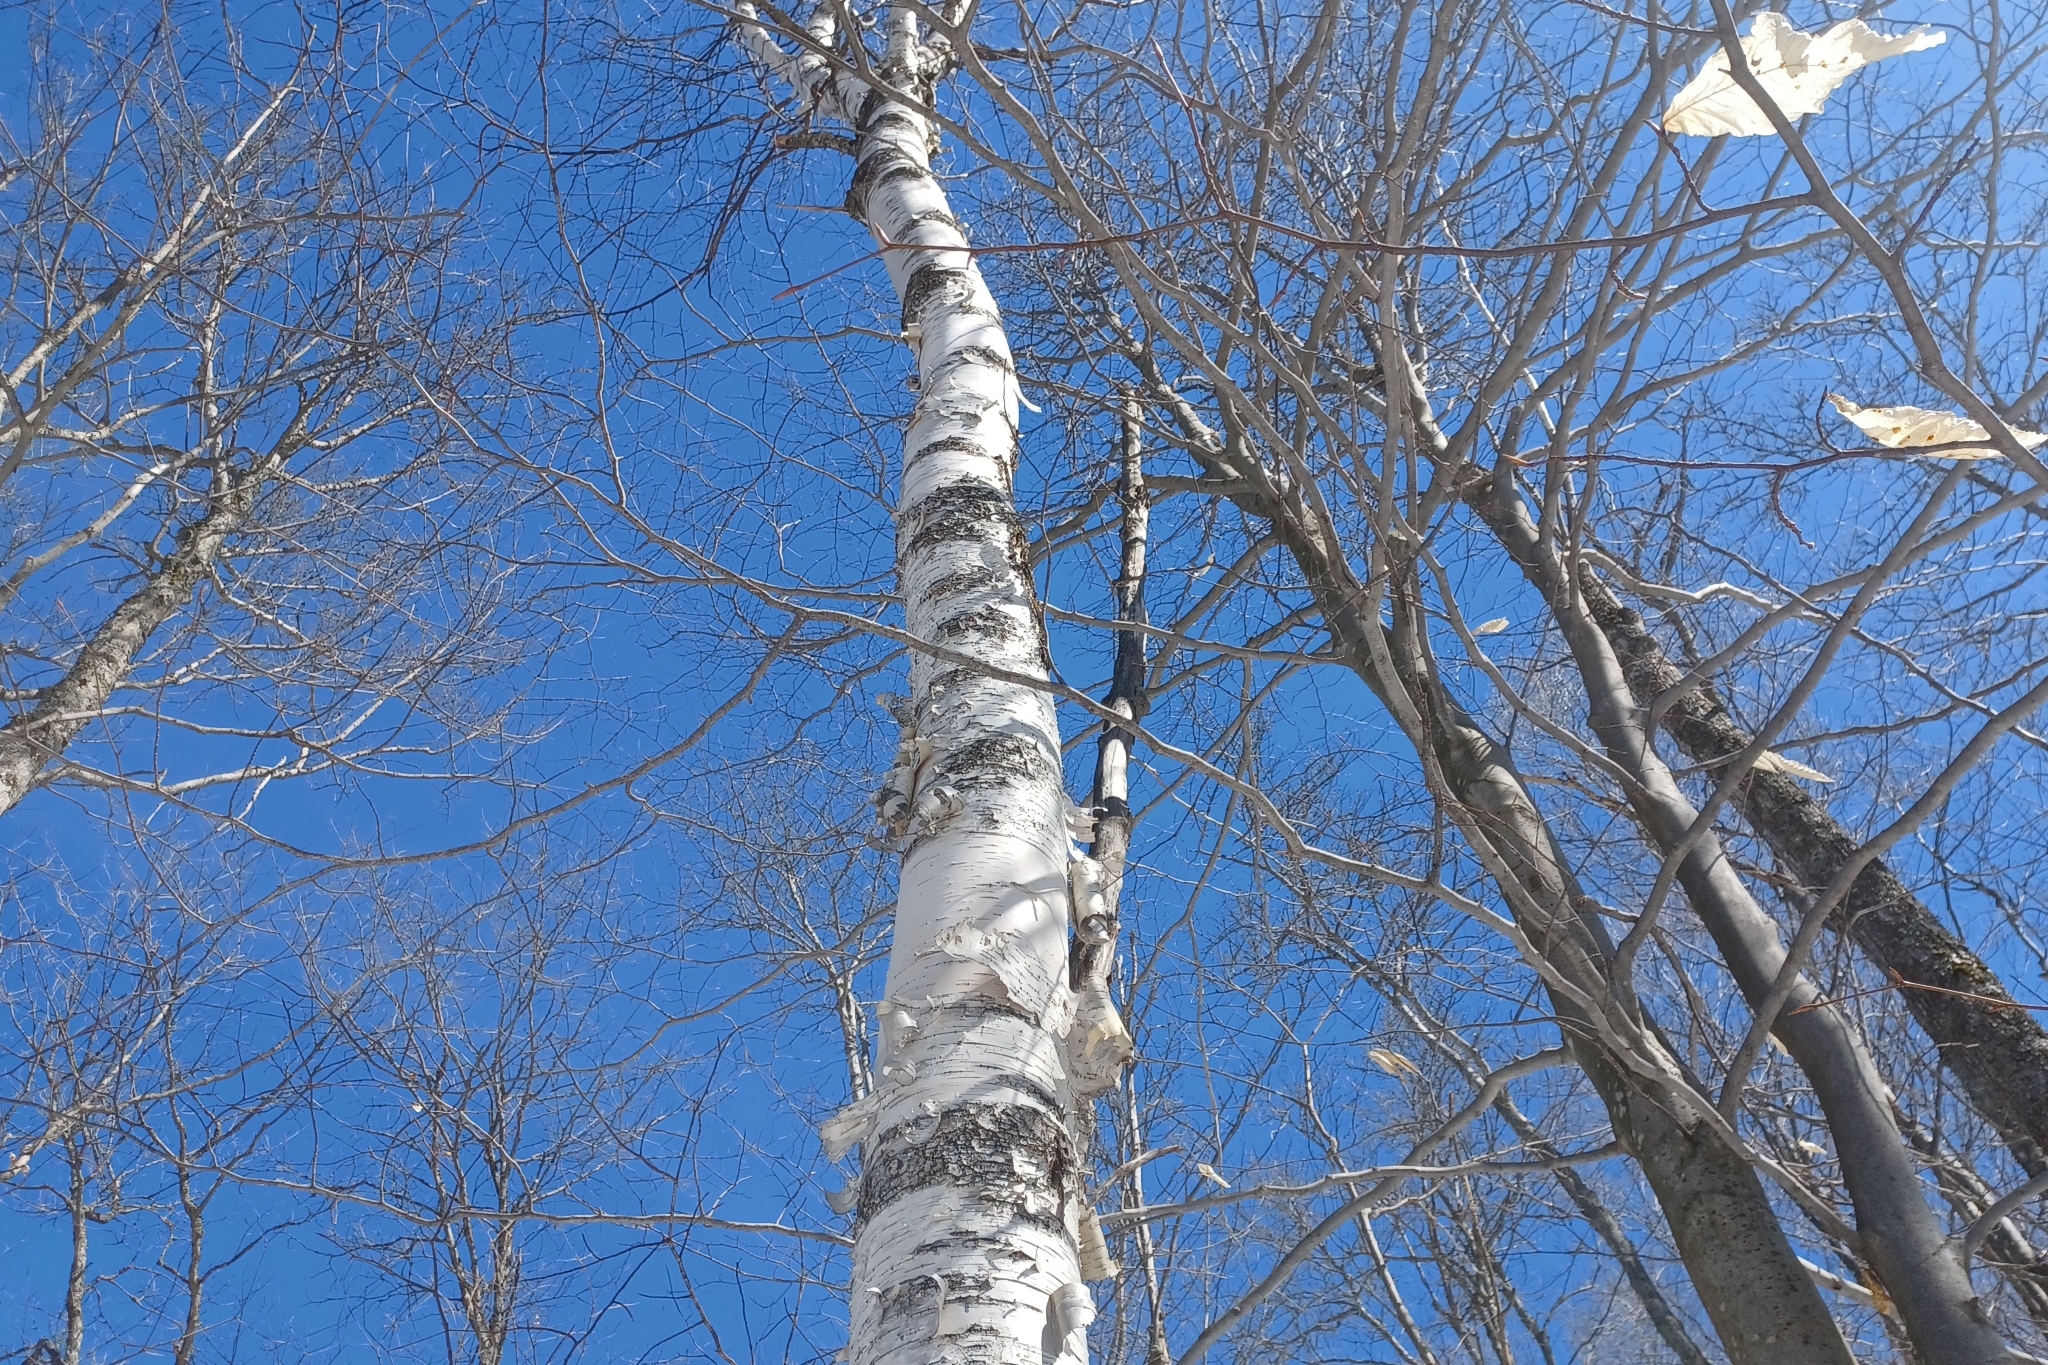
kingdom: Plantae
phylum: Tracheophyta
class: Magnoliopsida
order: Fagales
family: Betulaceae
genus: Betula
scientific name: Betula papyrifera
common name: Paper birch
